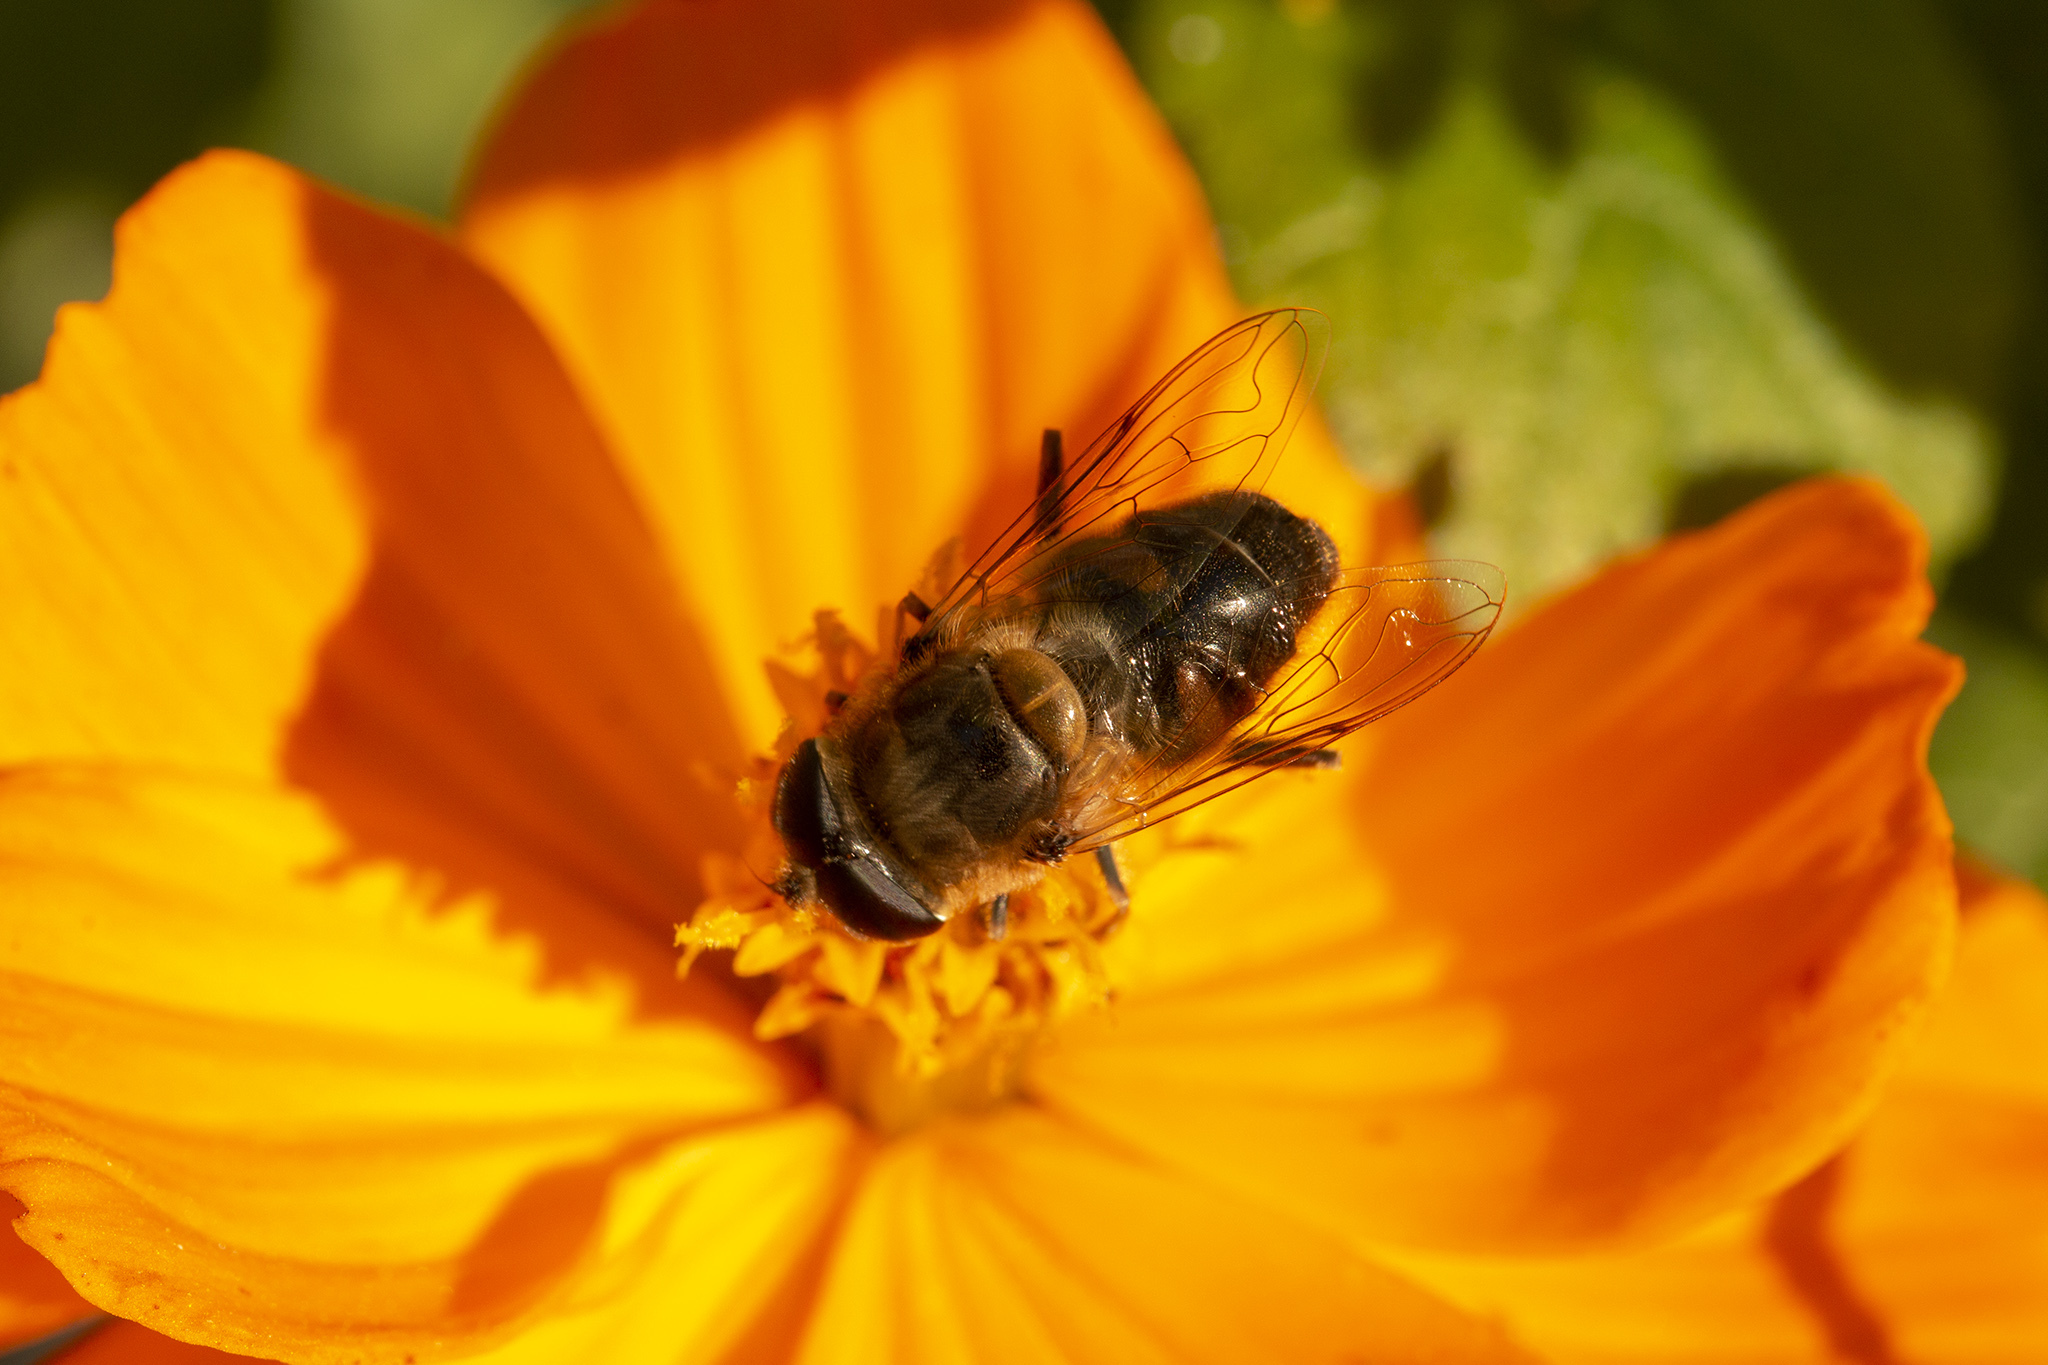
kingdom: Animalia
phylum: Arthropoda
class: Insecta
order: Diptera
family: Syrphidae
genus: Eristalis
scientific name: Eristalis tenax
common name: Drone fly
